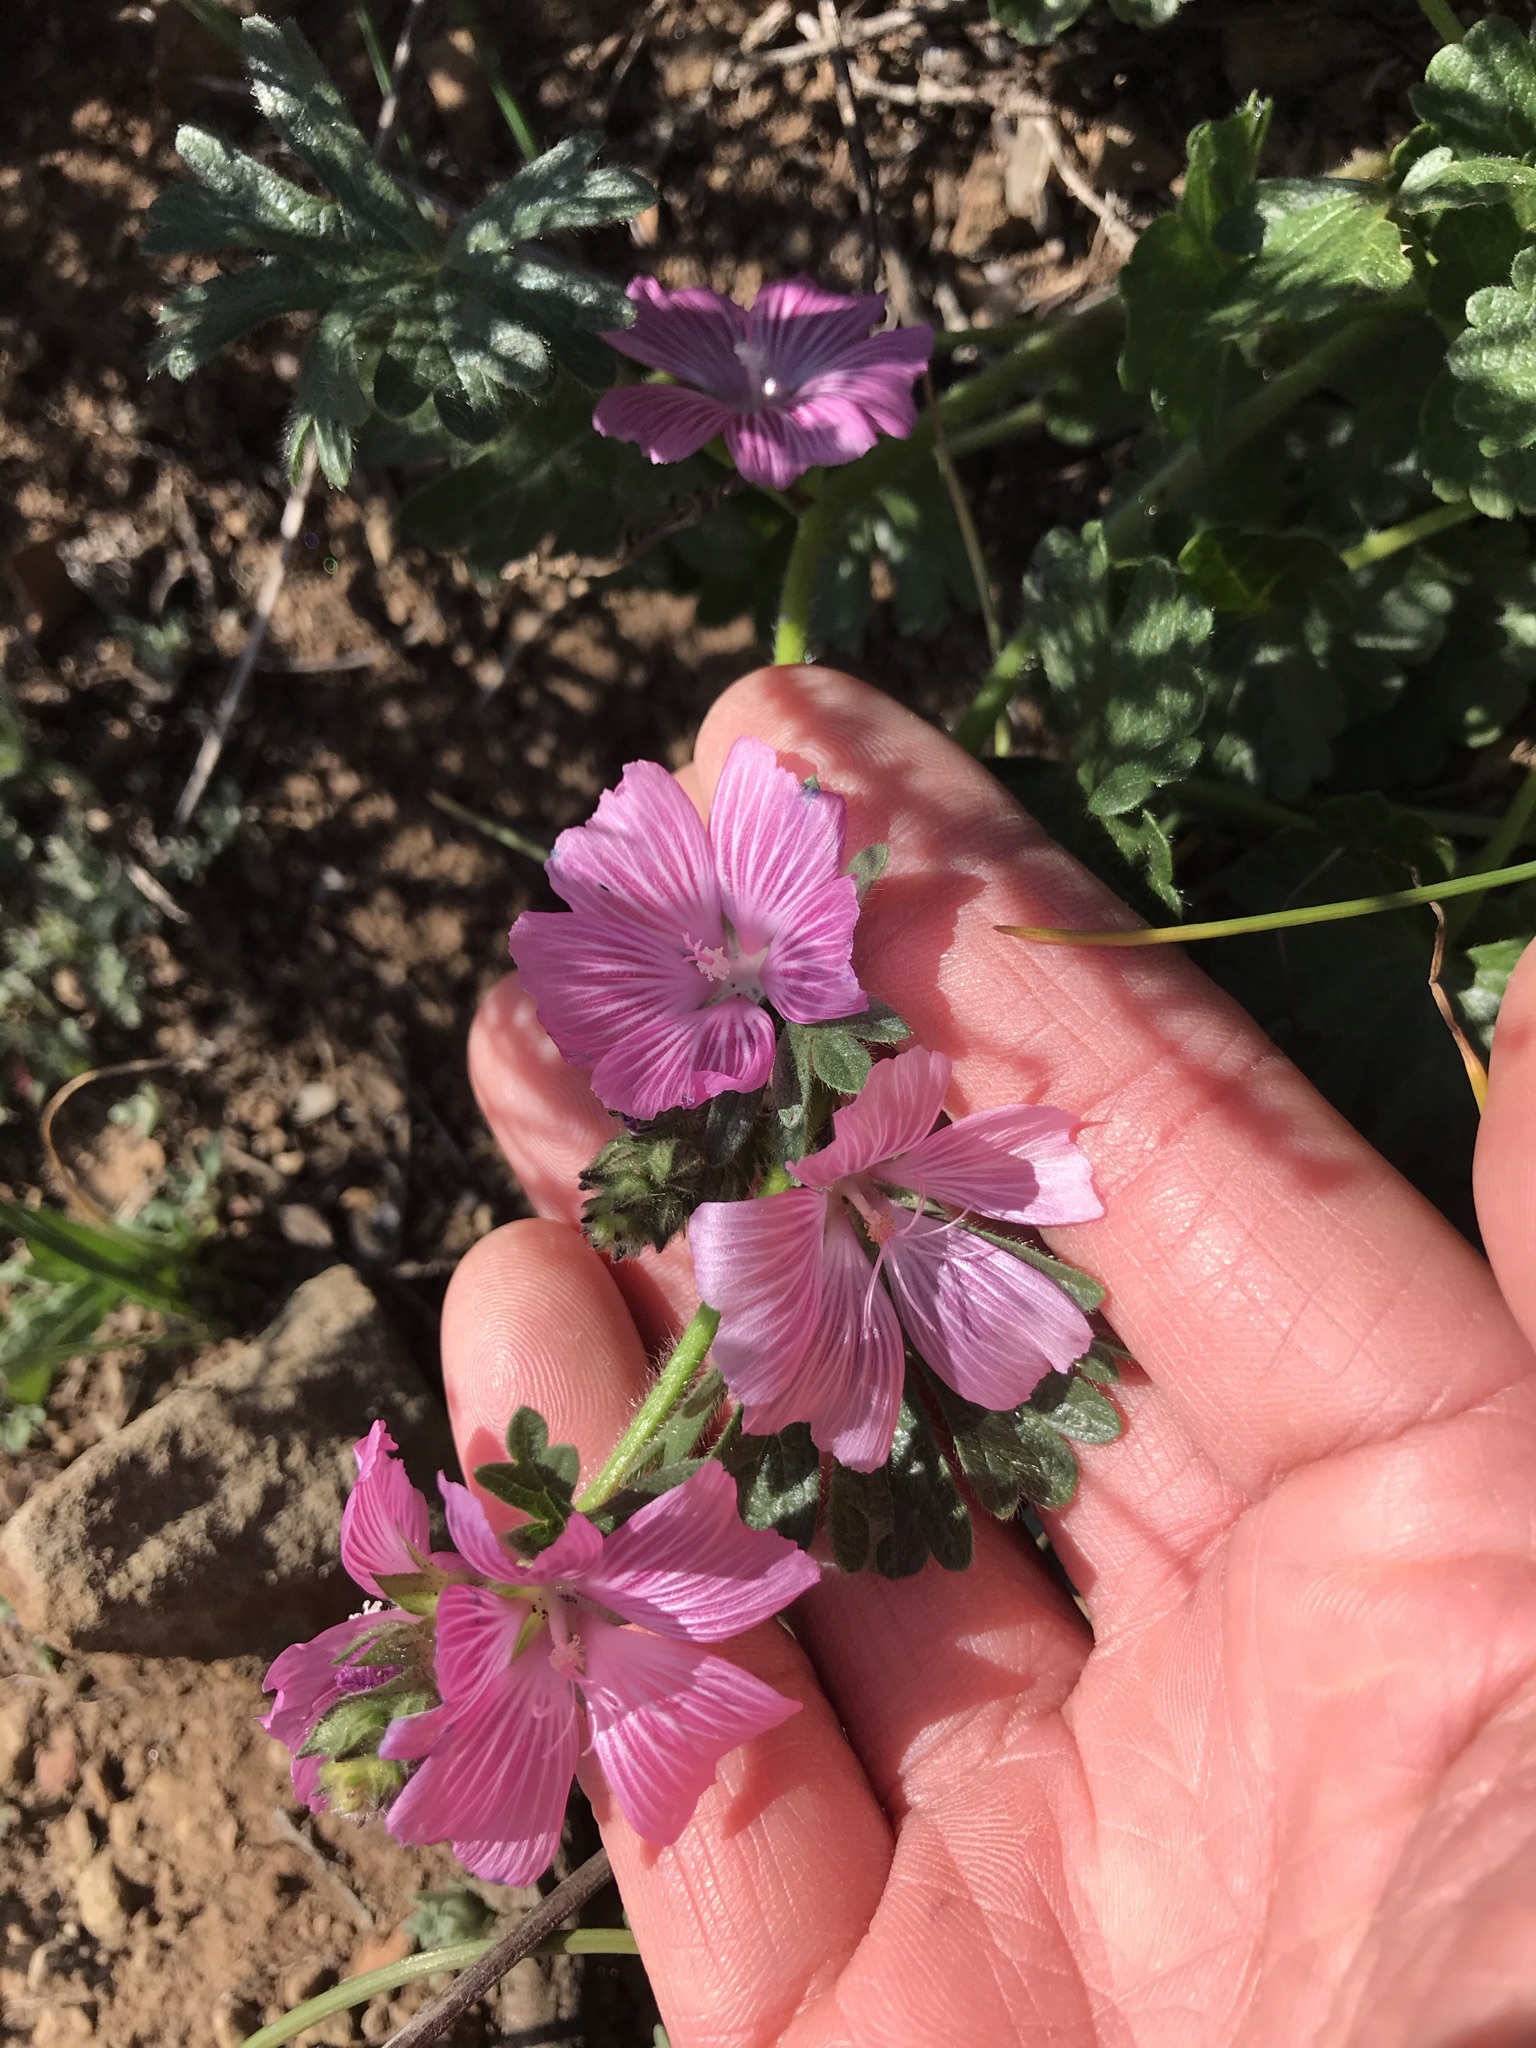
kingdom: Plantae
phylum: Tracheophyta
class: Magnoliopsida
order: Malvales
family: Malvaceae
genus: Sidalcea
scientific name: Sidalcea malviflora
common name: Greek mallow
